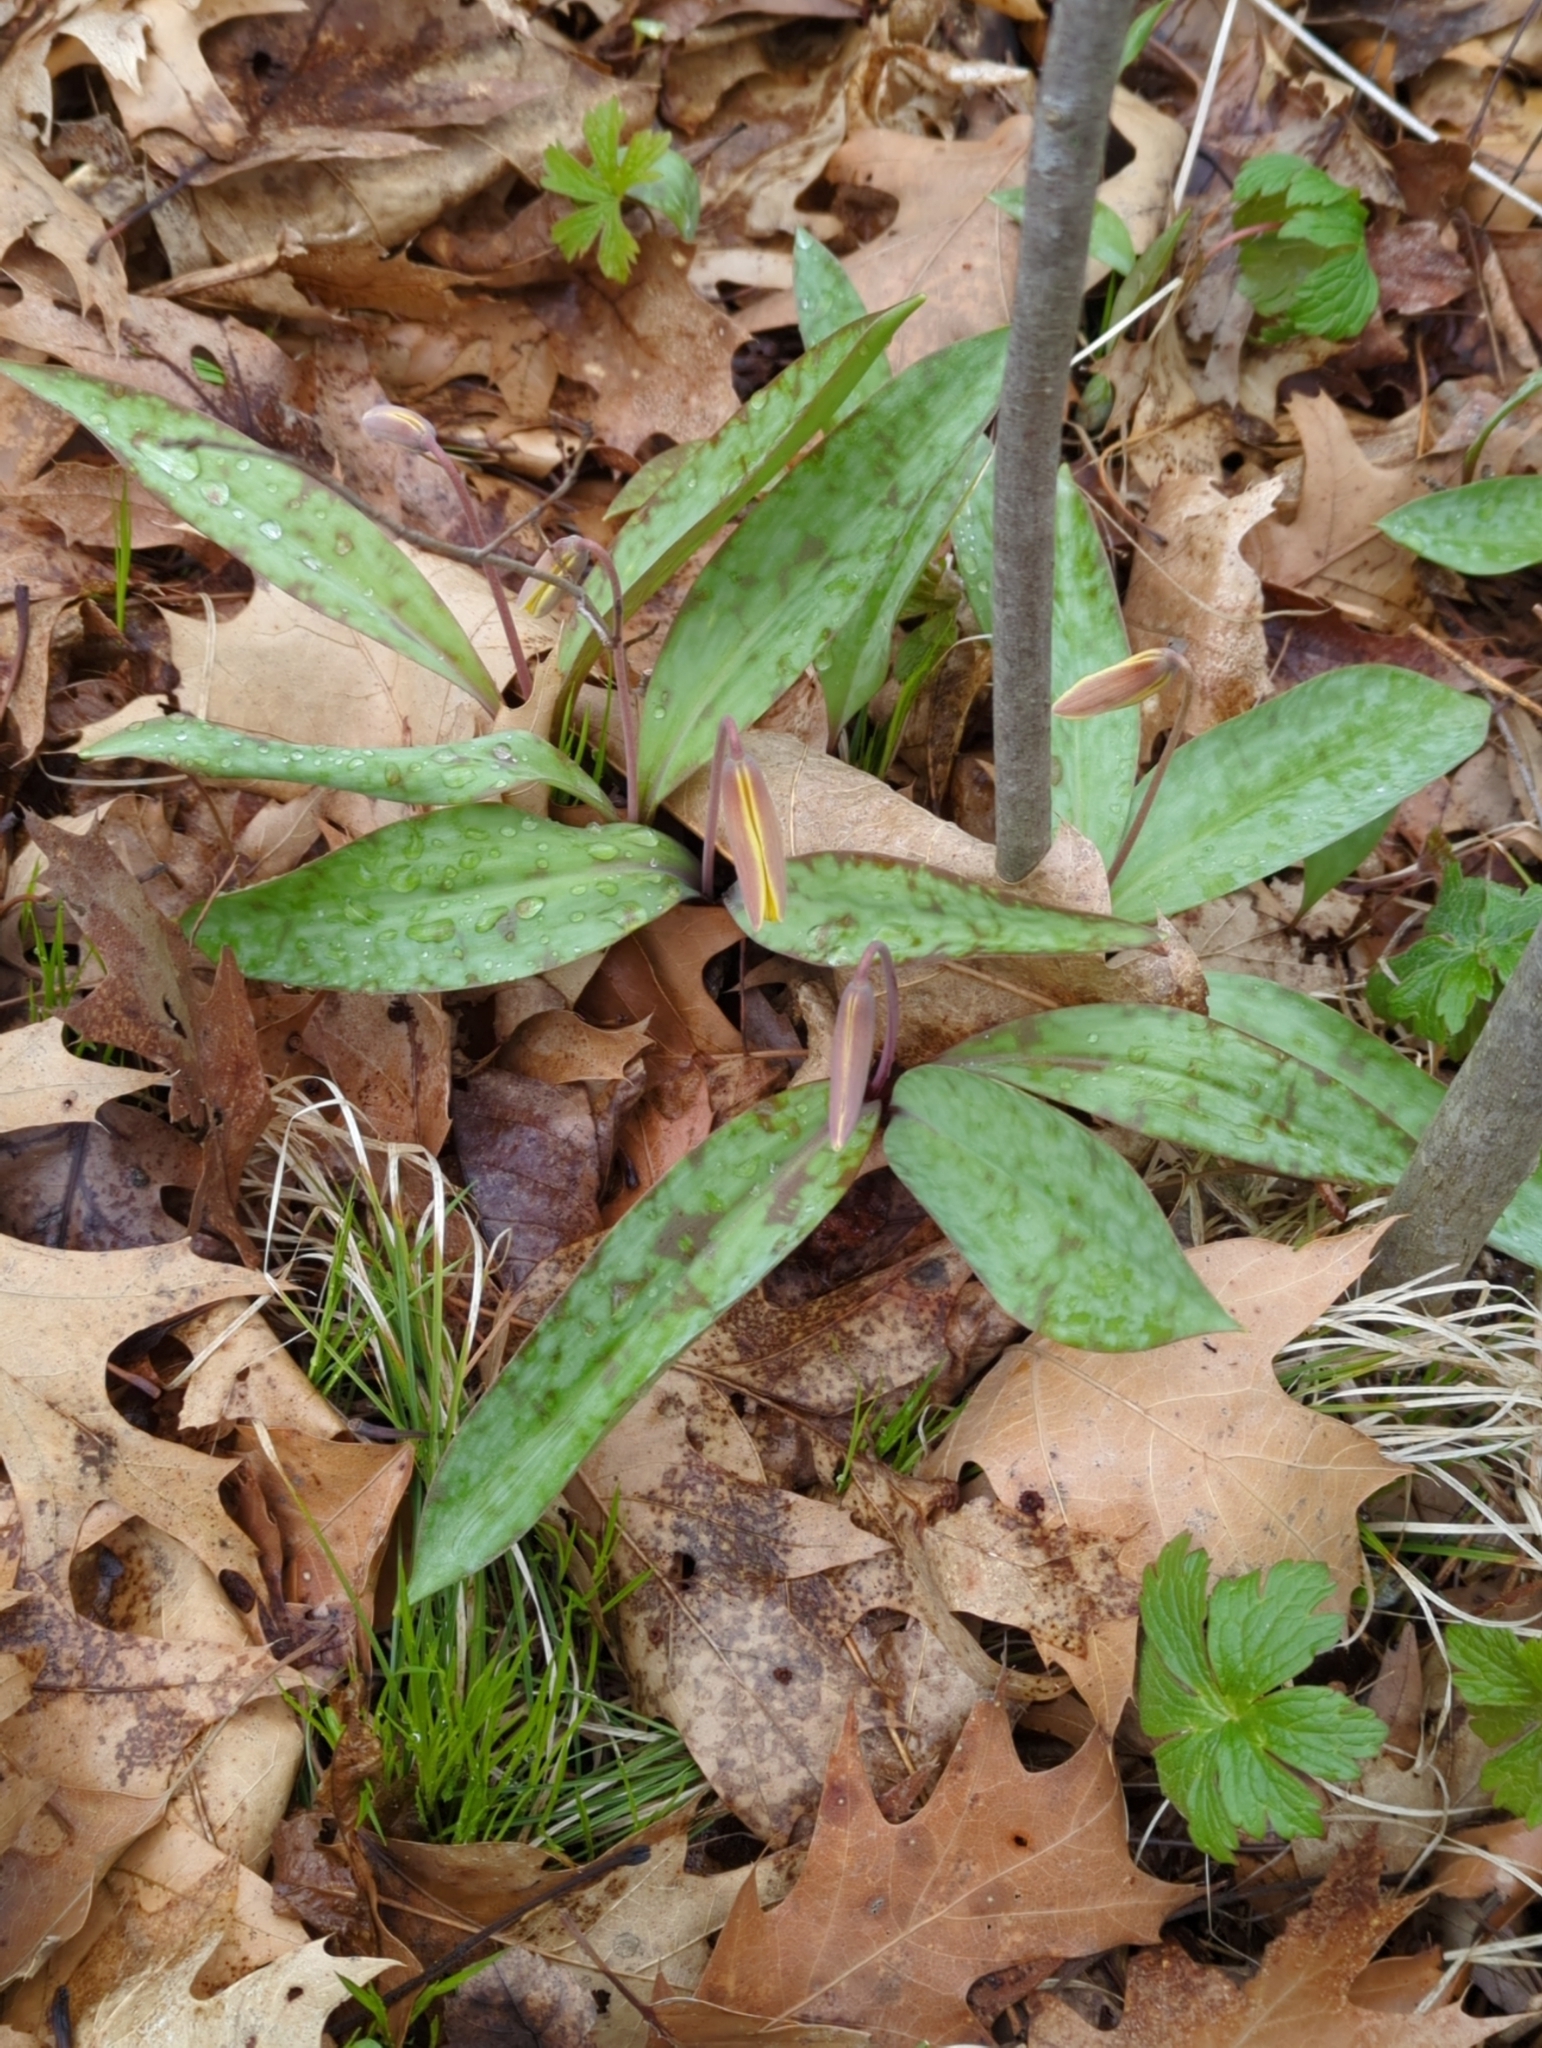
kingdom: Plantae
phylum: Tracheophyta
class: Liliopsida
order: Liliales
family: Liliaceae
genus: Erythronium
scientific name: Erythronium americanum
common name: Yellow adder's-tongue
